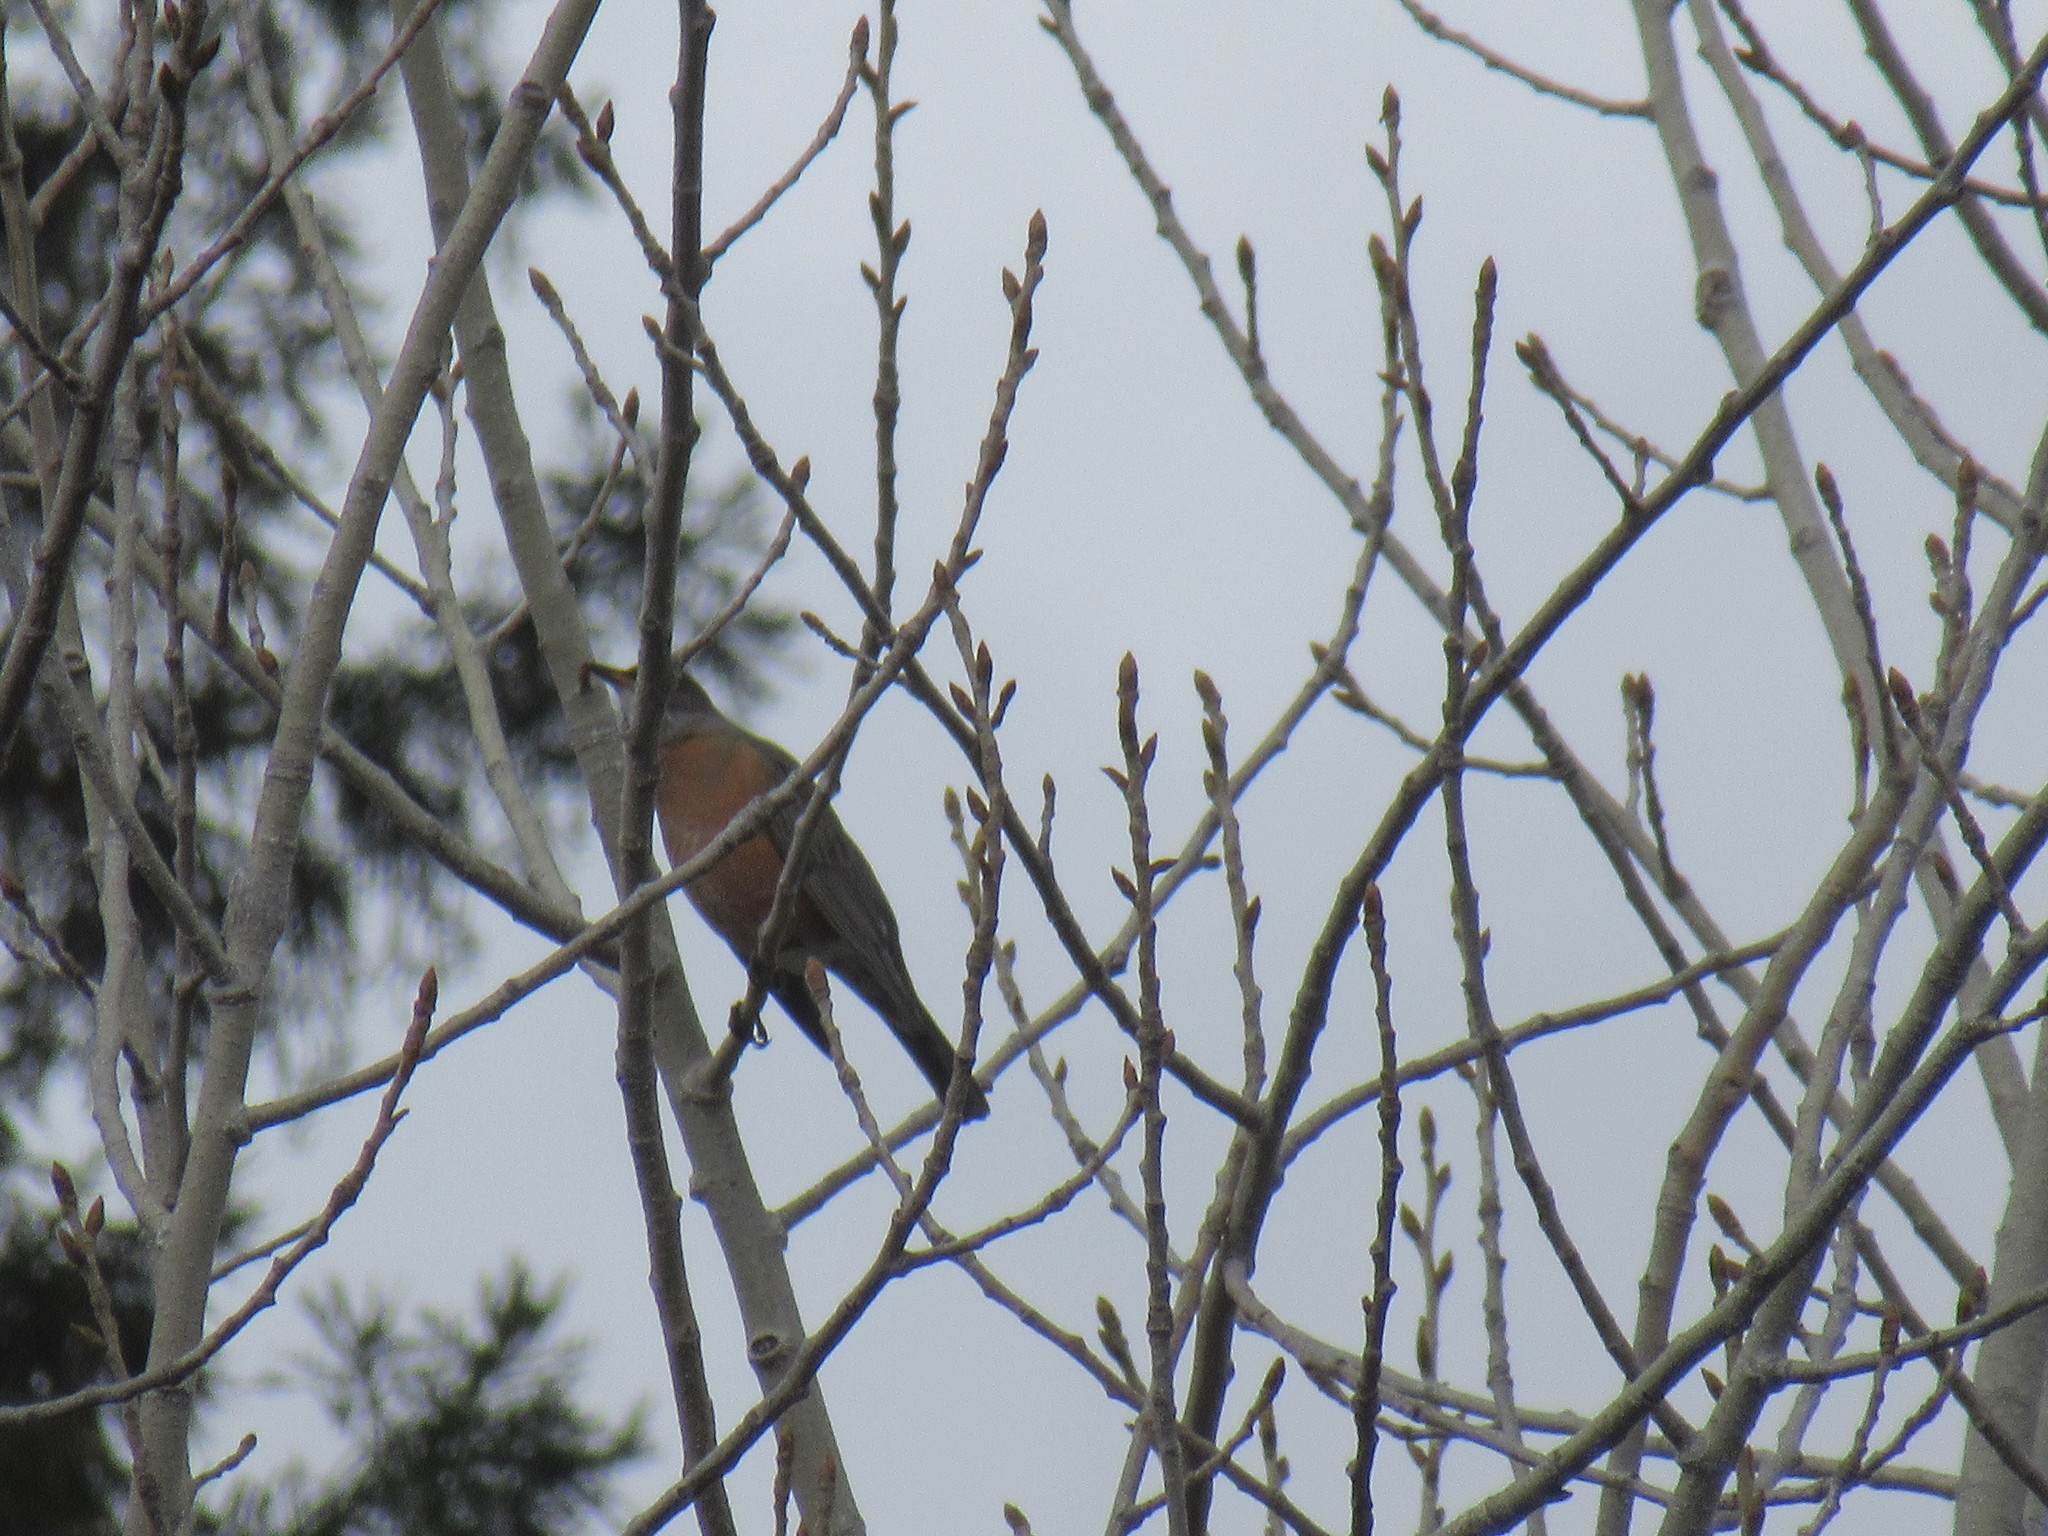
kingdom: Animalia
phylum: Chordata
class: Aves
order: Passeriformes
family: Turdidae
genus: Turdus
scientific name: Turdus migratorius
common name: American robin
